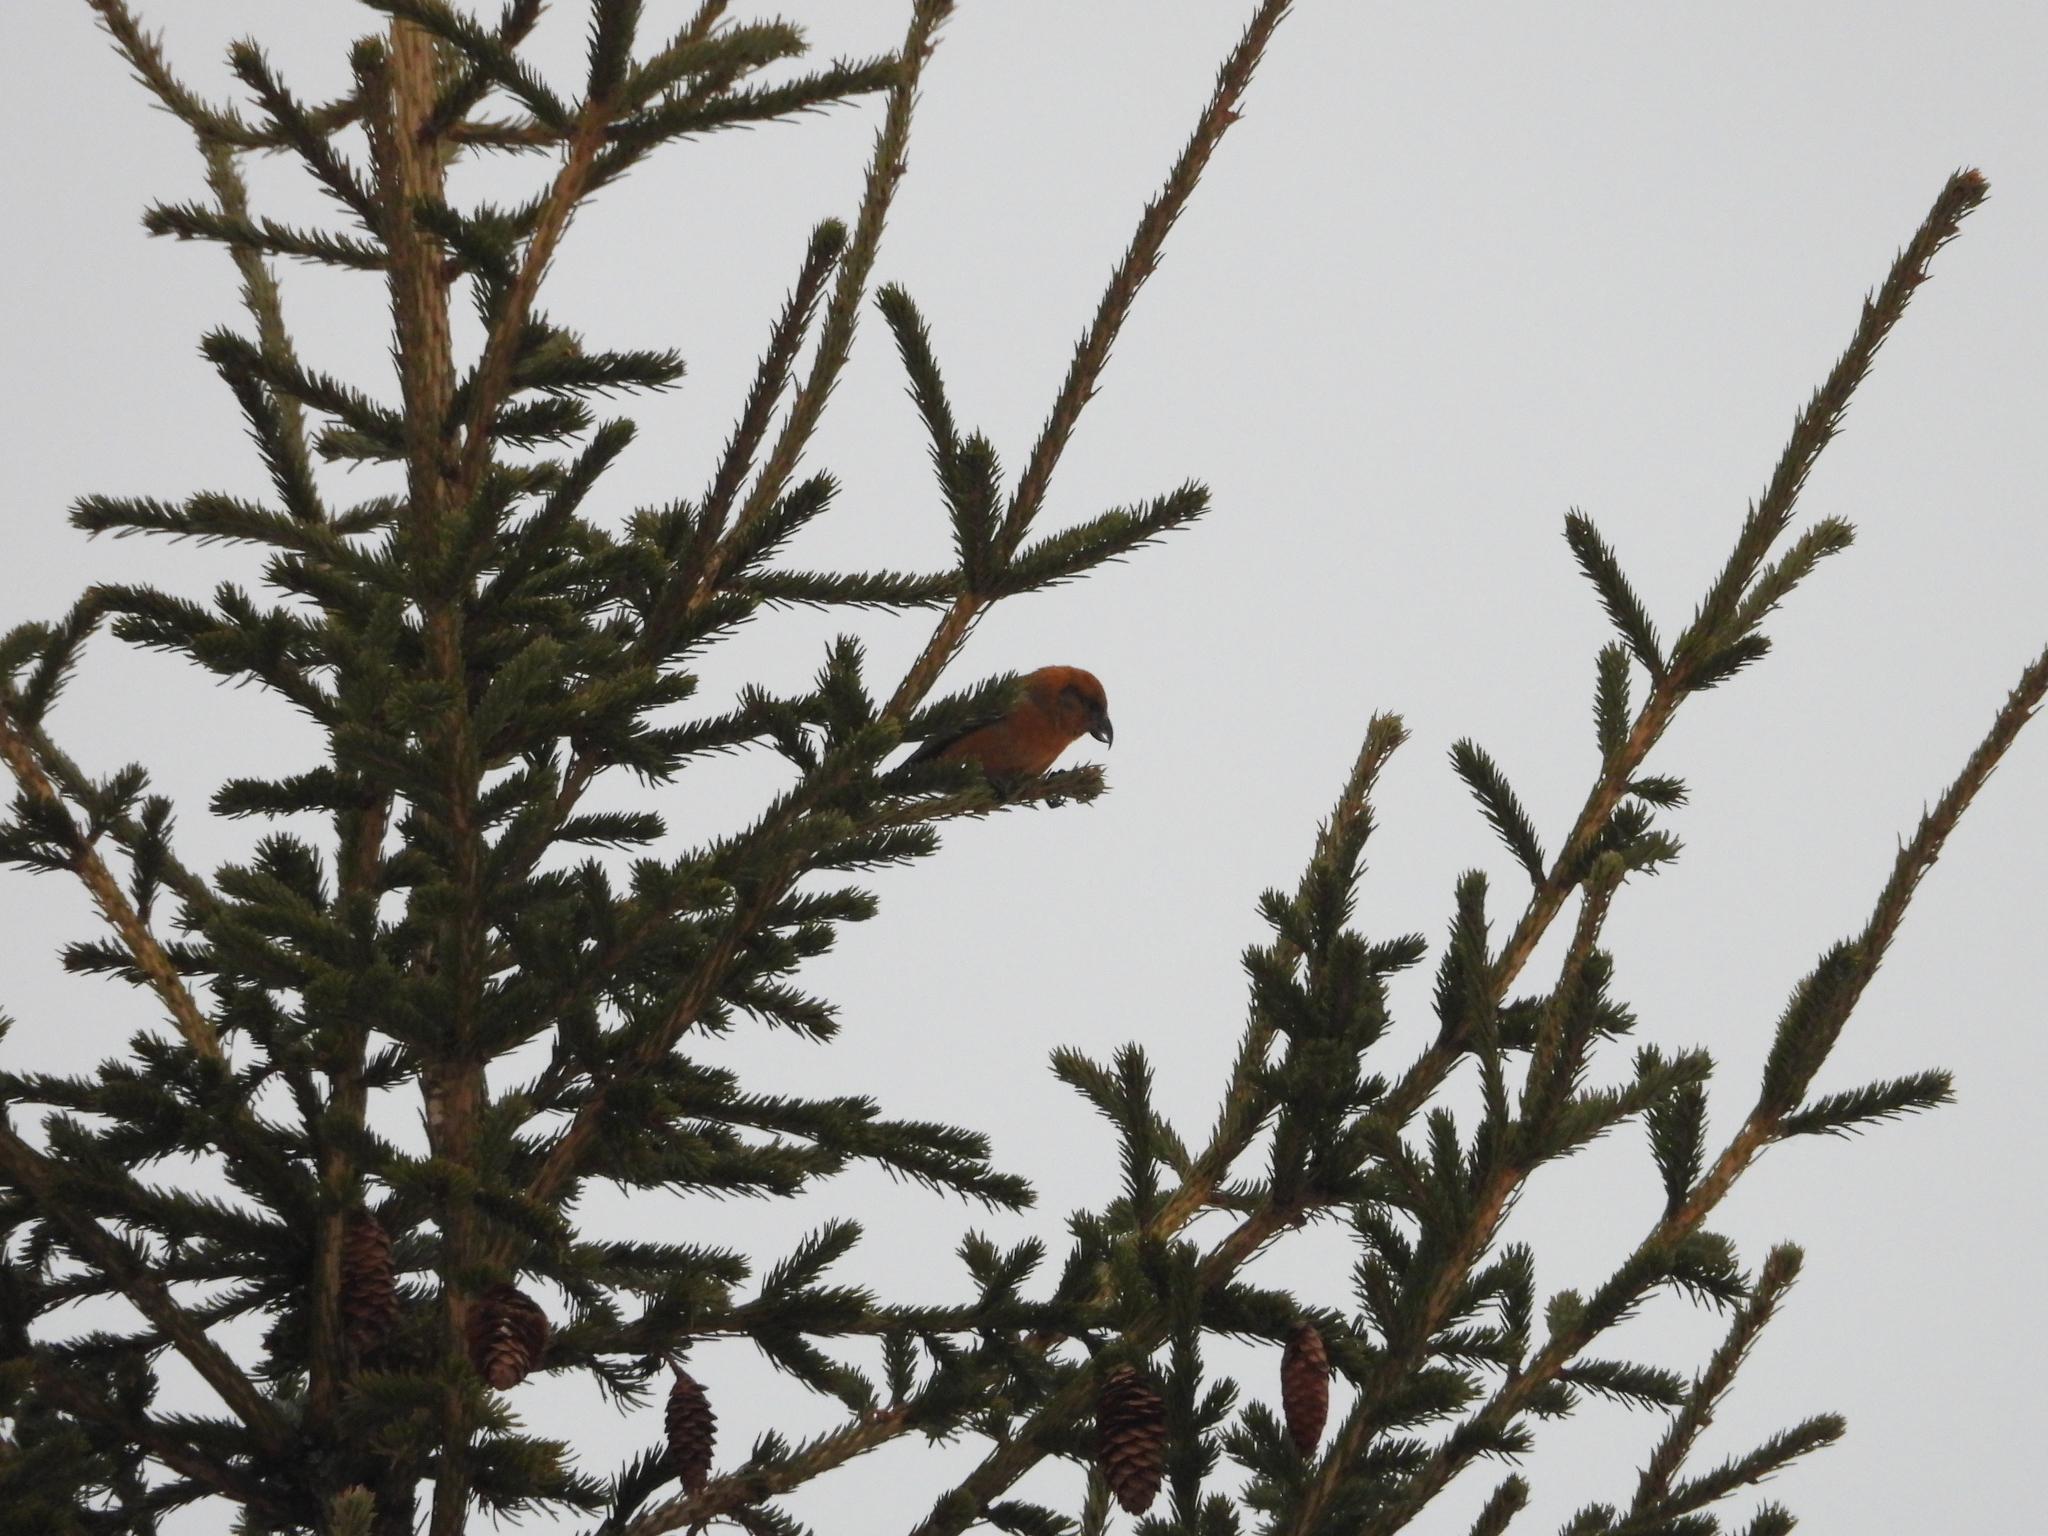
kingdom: Animalia
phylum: Chordata
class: Aves
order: Passeriformes
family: Fringillidae
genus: Loxia
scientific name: Loxia curvirostra
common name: Red crossbill
